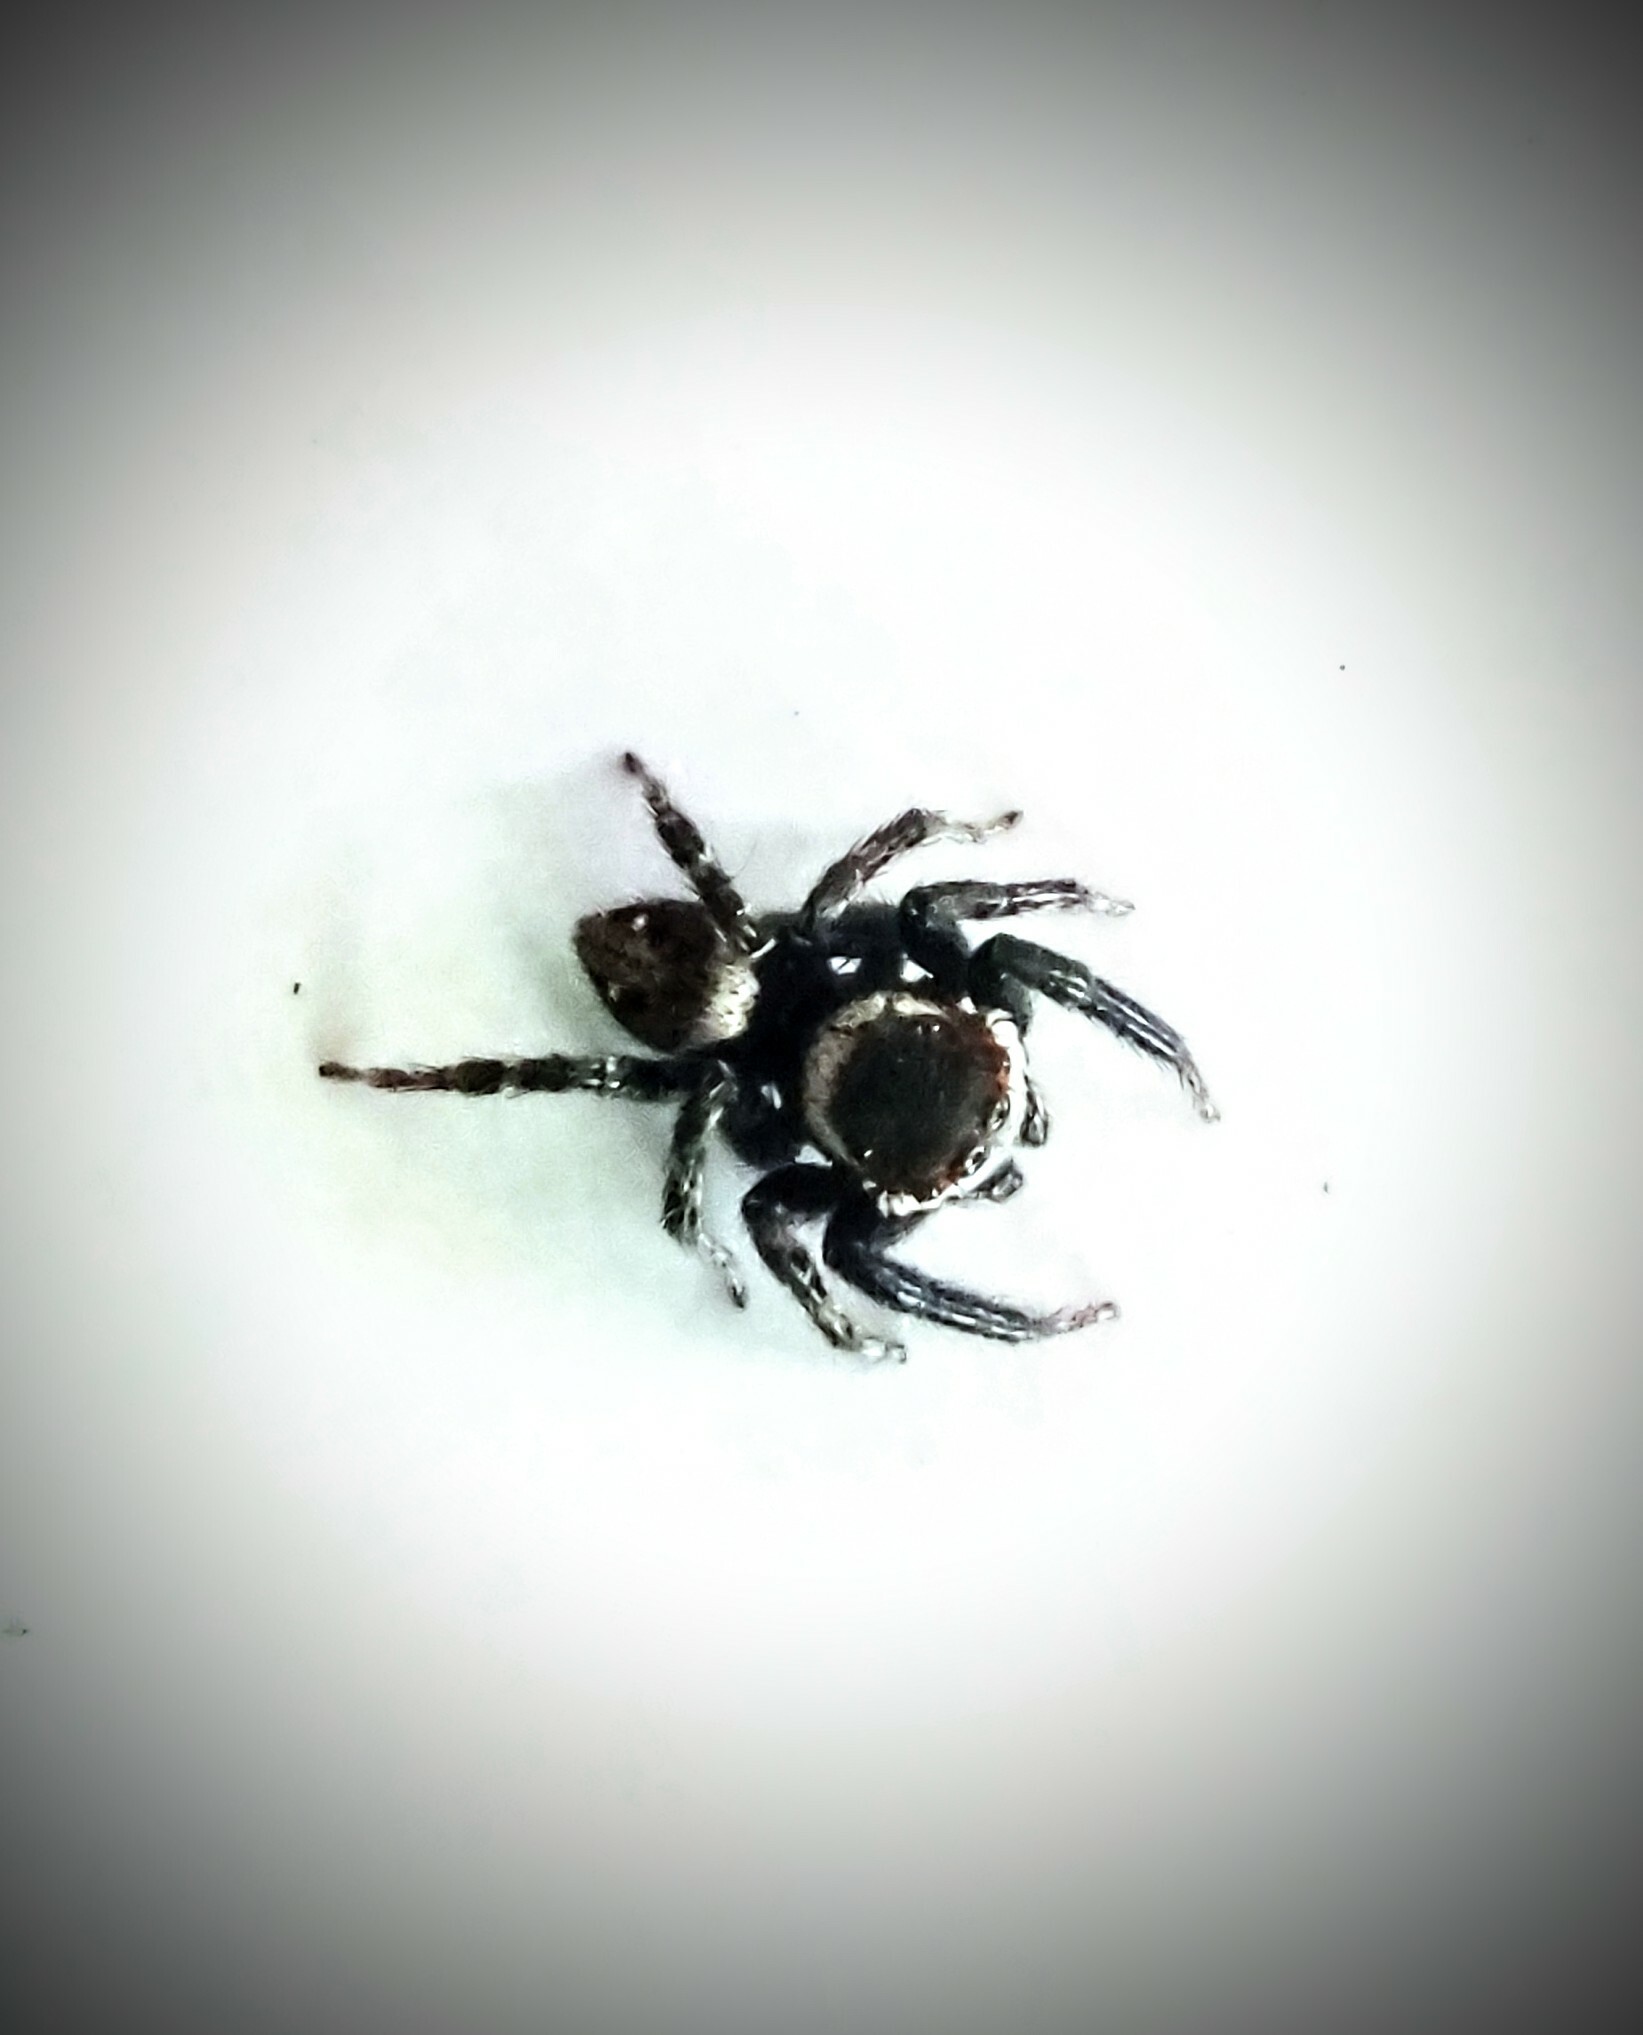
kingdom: Animalia
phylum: Arthropoda
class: Arachnida
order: Araneae
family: Salticidae
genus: Hasarius
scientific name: Hasarius adansoni
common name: Jumping spider
